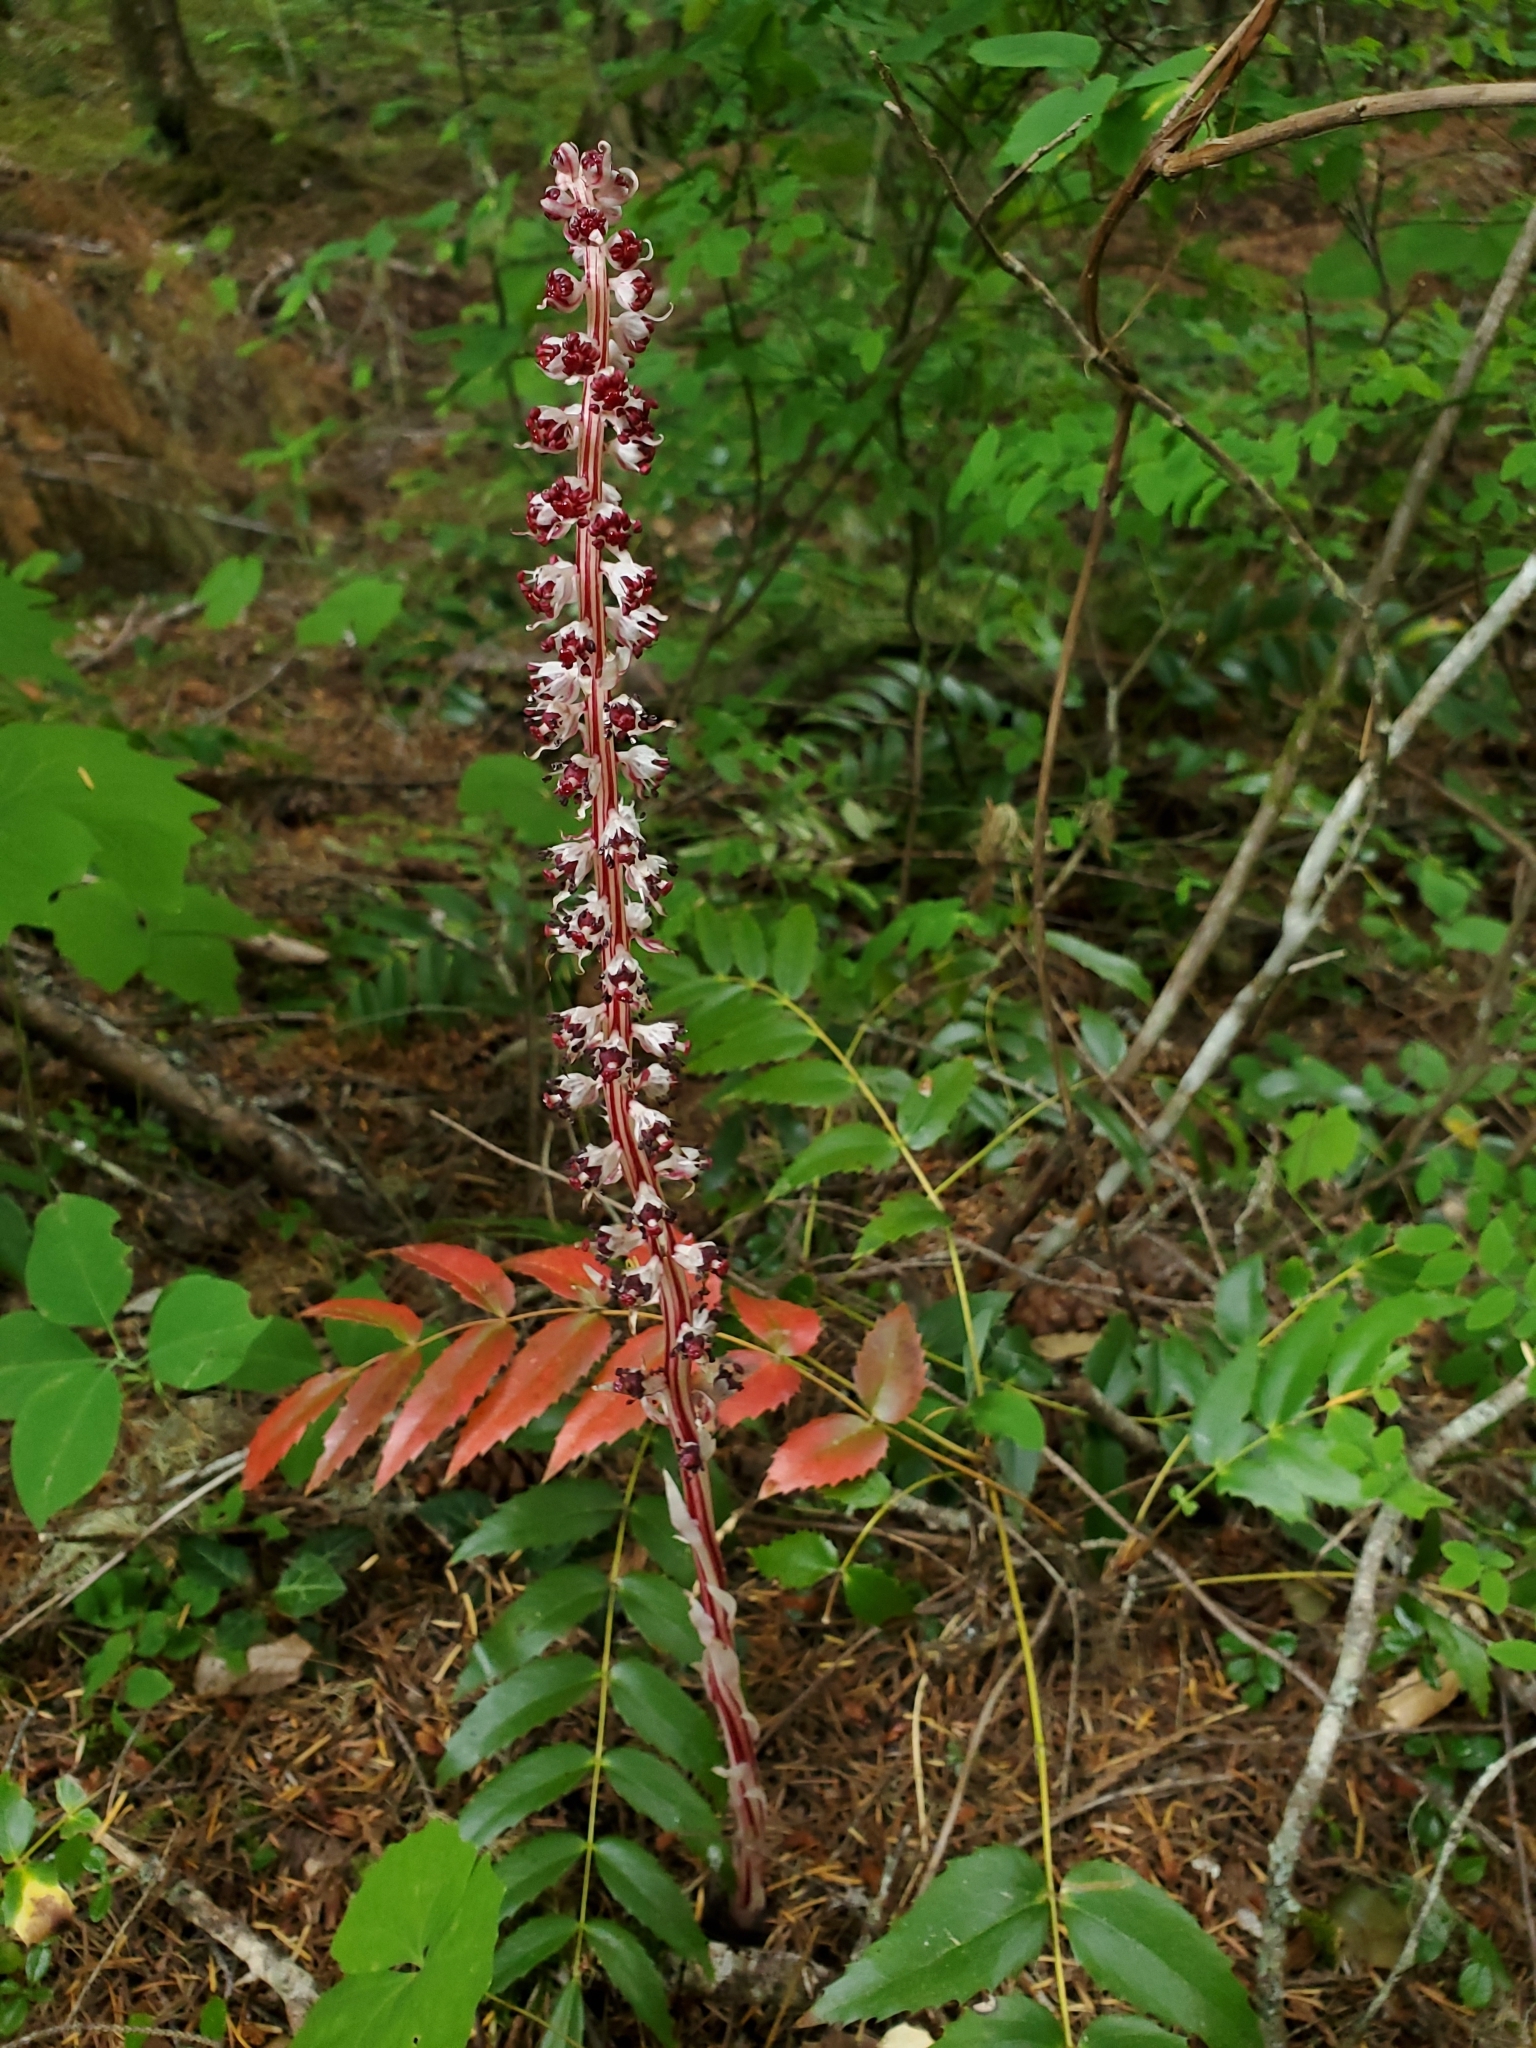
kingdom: Plantae
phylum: Tracheophyta
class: Magnoliopsida
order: Ericales
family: Ericaceae
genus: Allotropa
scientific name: Allotropa virgata
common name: Candy-striped allotropa
